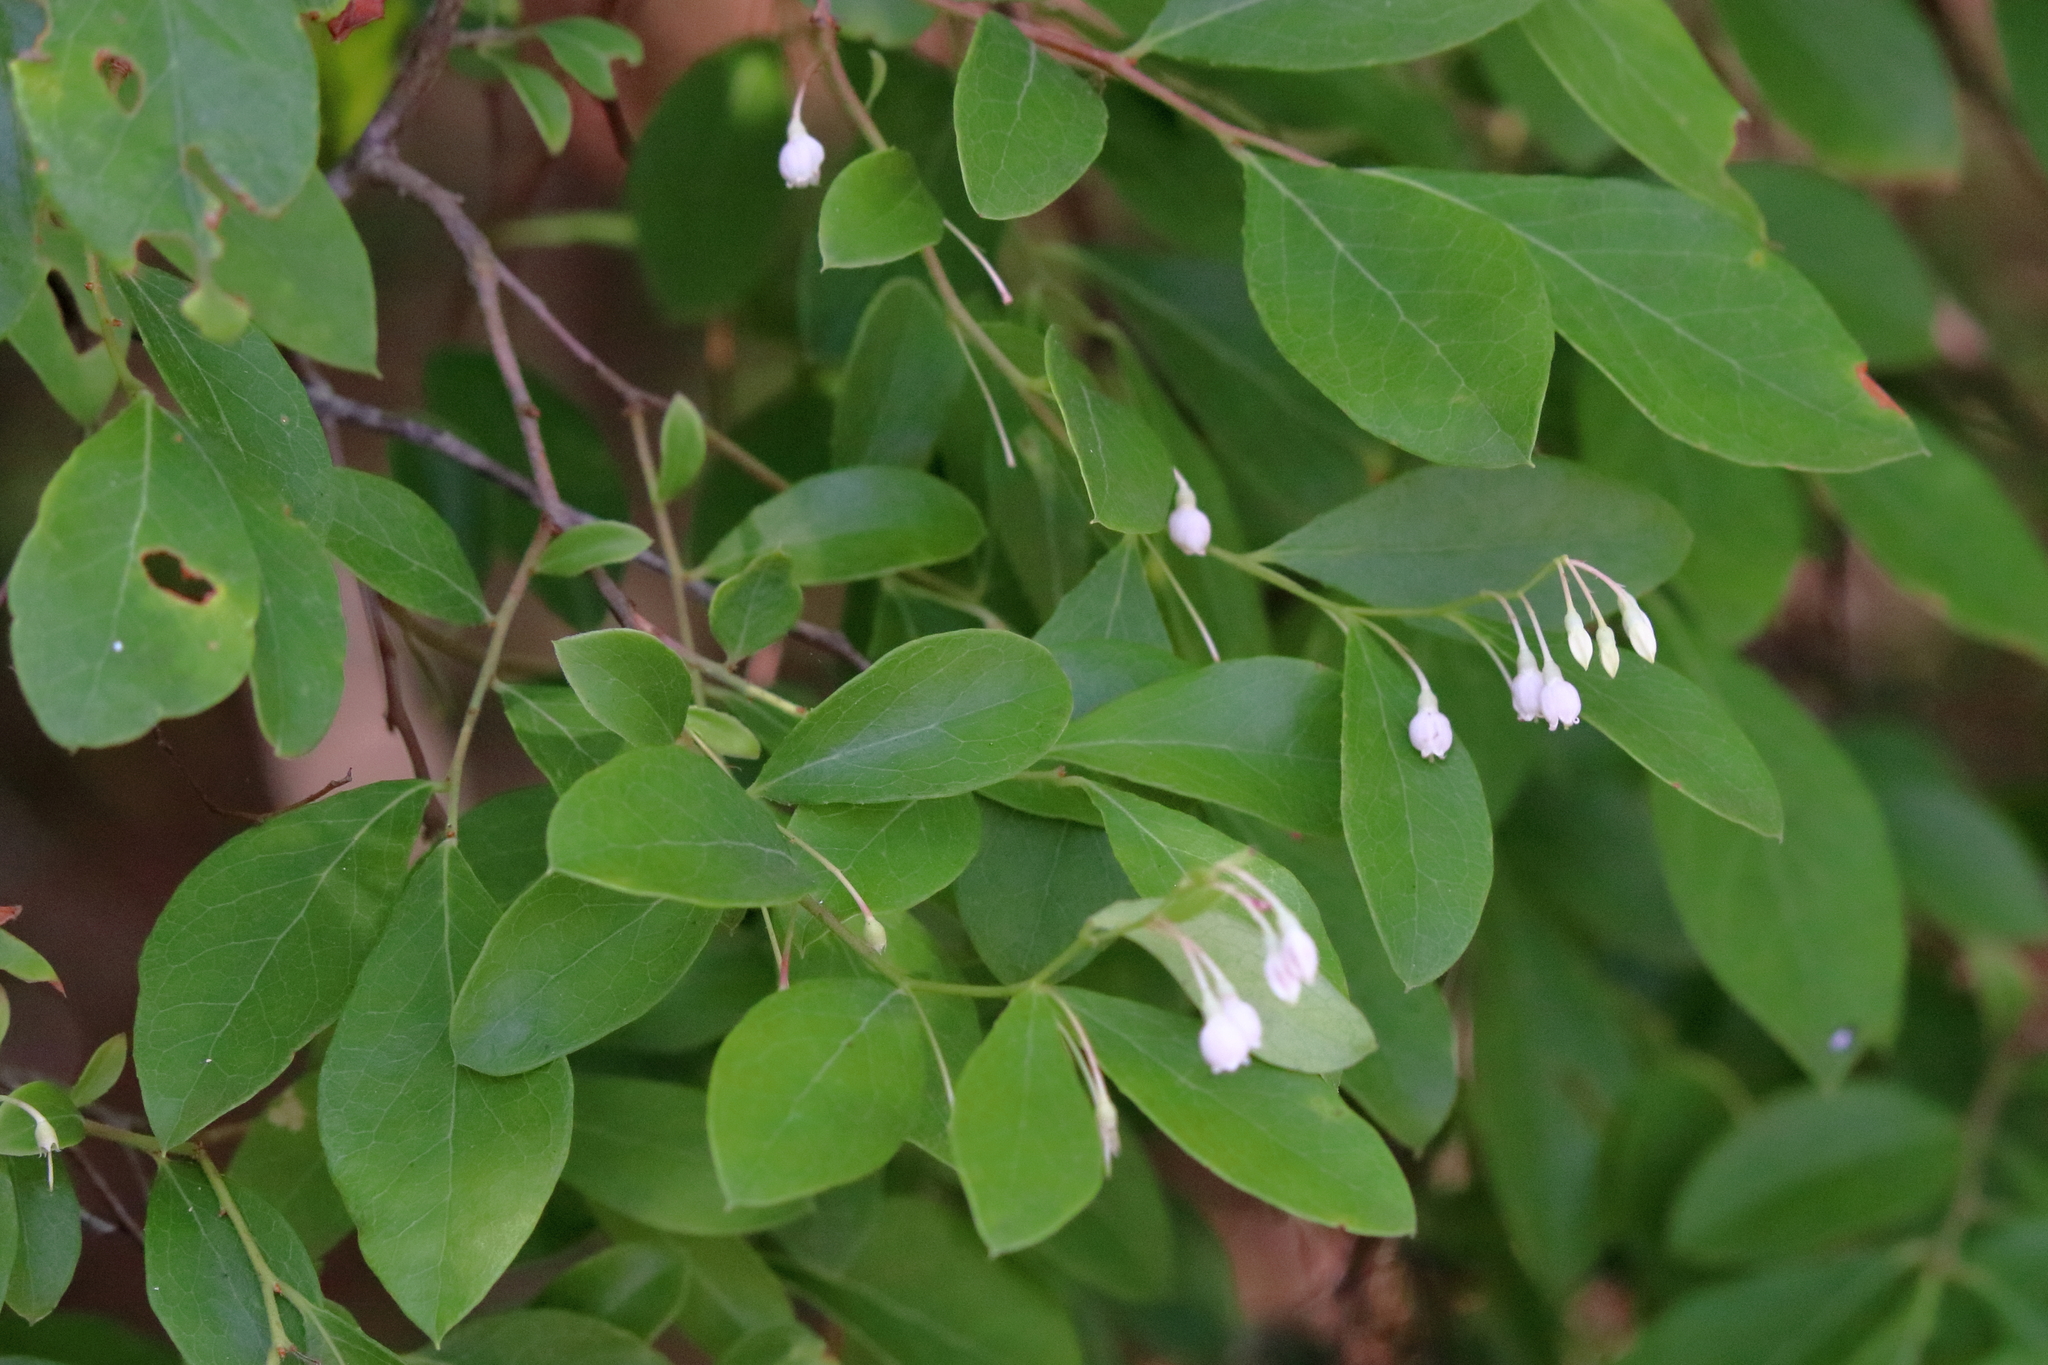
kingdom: Plantae
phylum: Tracheophyta
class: Magnoliopsida
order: Ericales
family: Ericaceae
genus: Vaccinium
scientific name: Vaccinium arboreum
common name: Farkleberry
